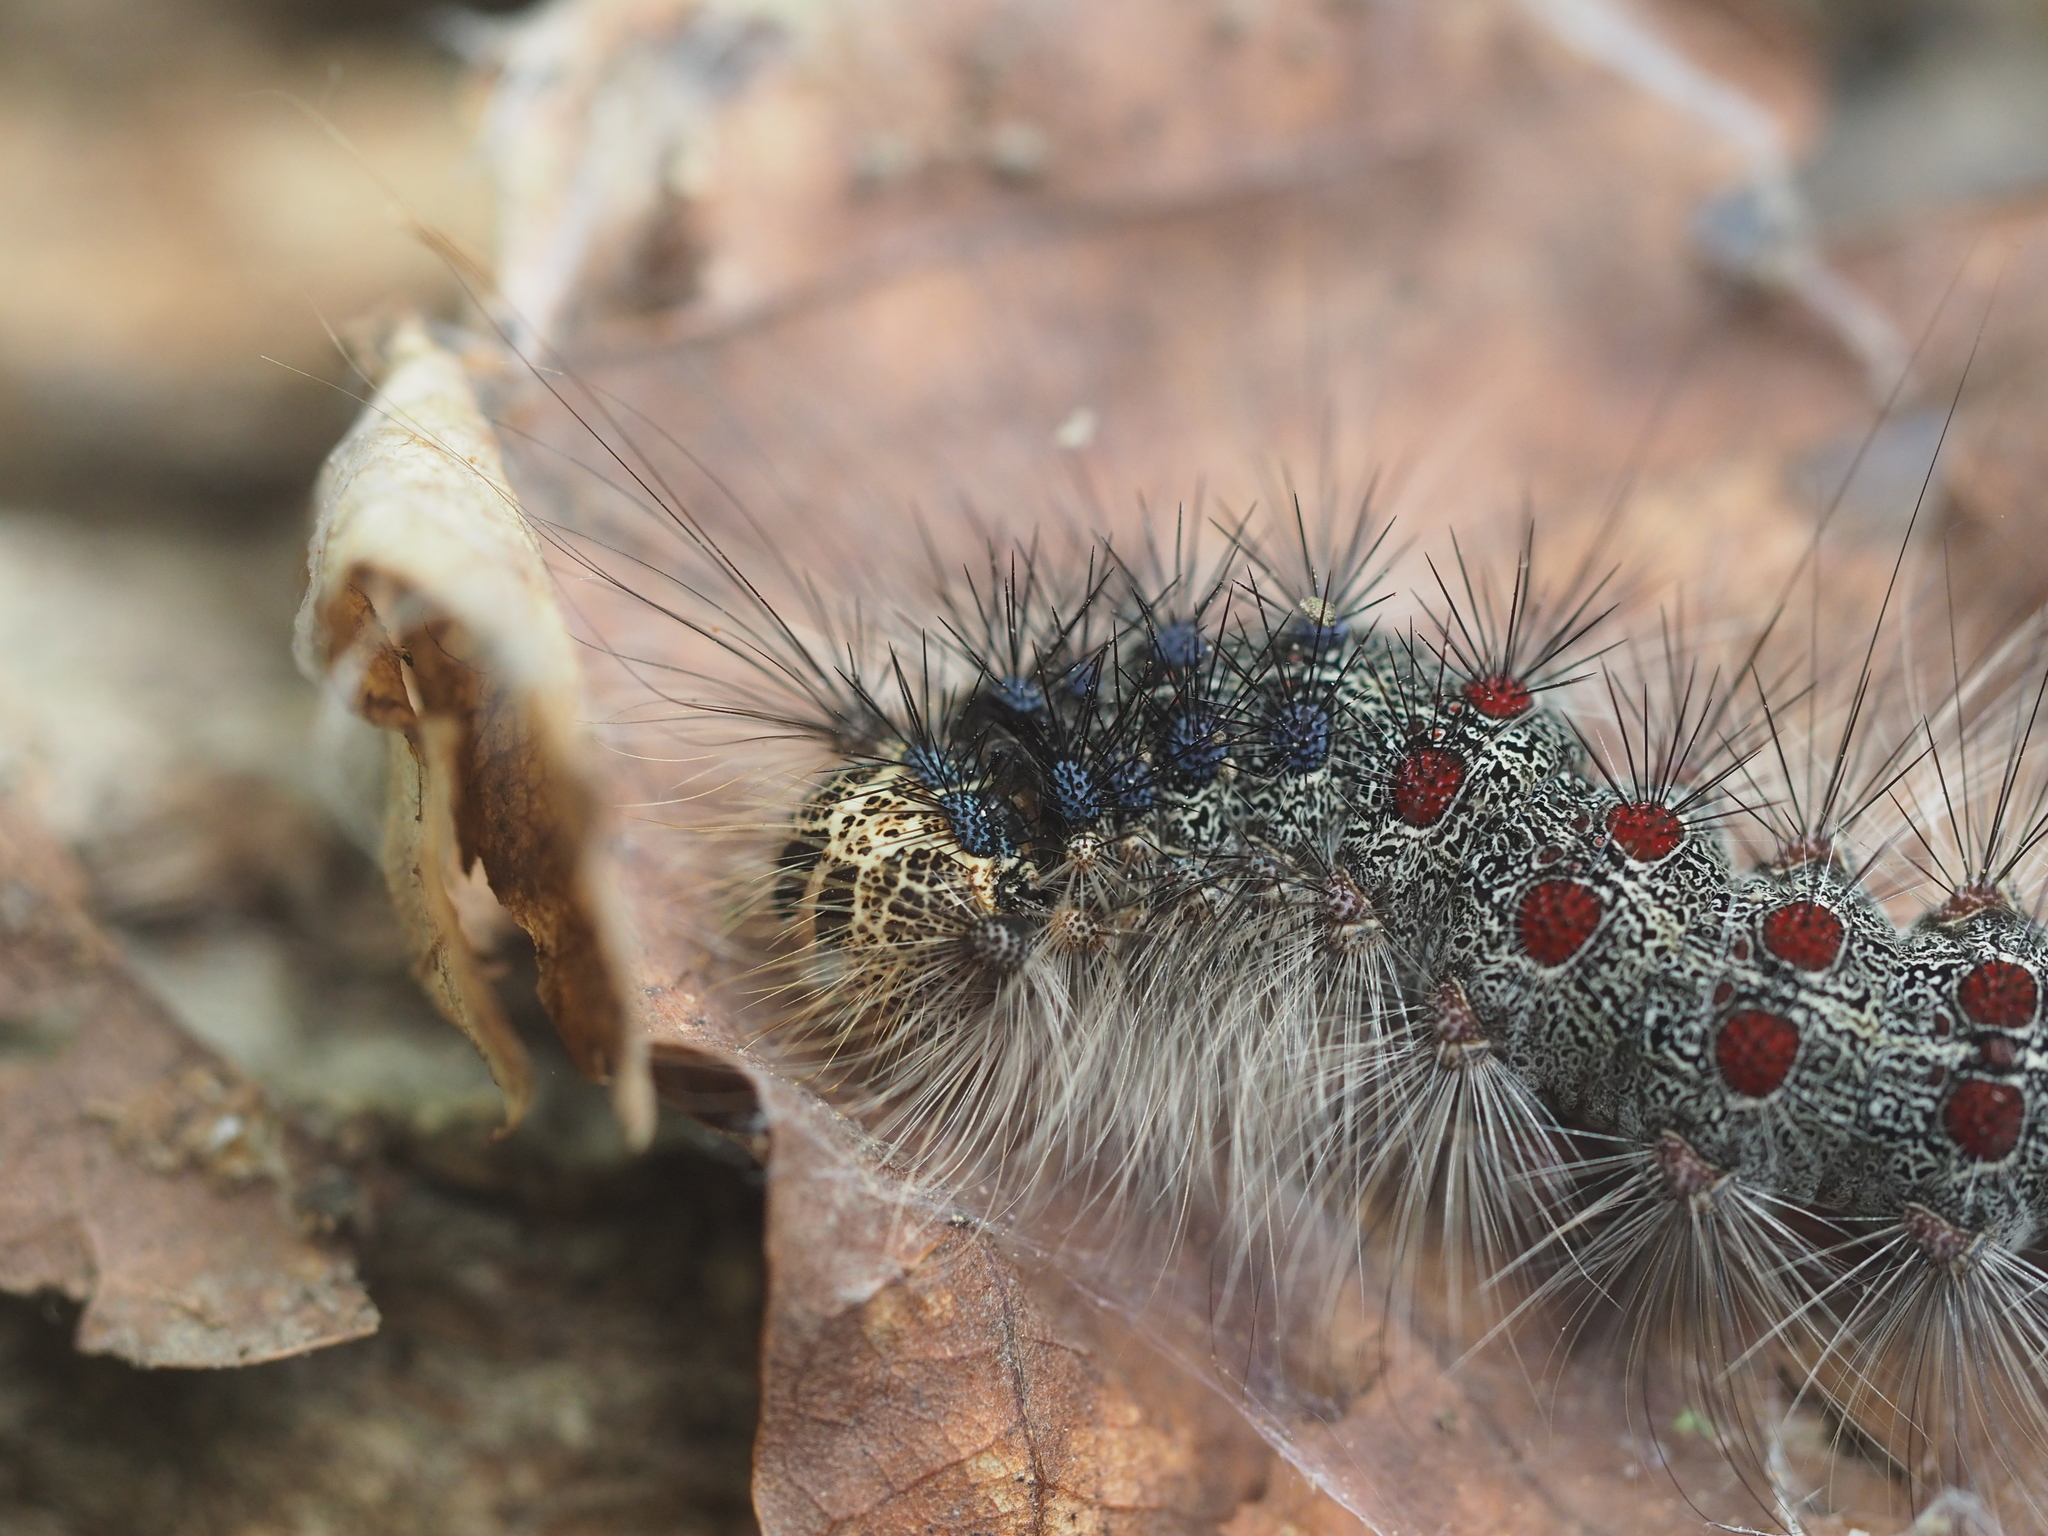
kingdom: Animalia
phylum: Arthropoda
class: Insecta
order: Lepidoptera
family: Erebidae
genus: Lymantria
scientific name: Lymantria dispar
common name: Gypsy moth
